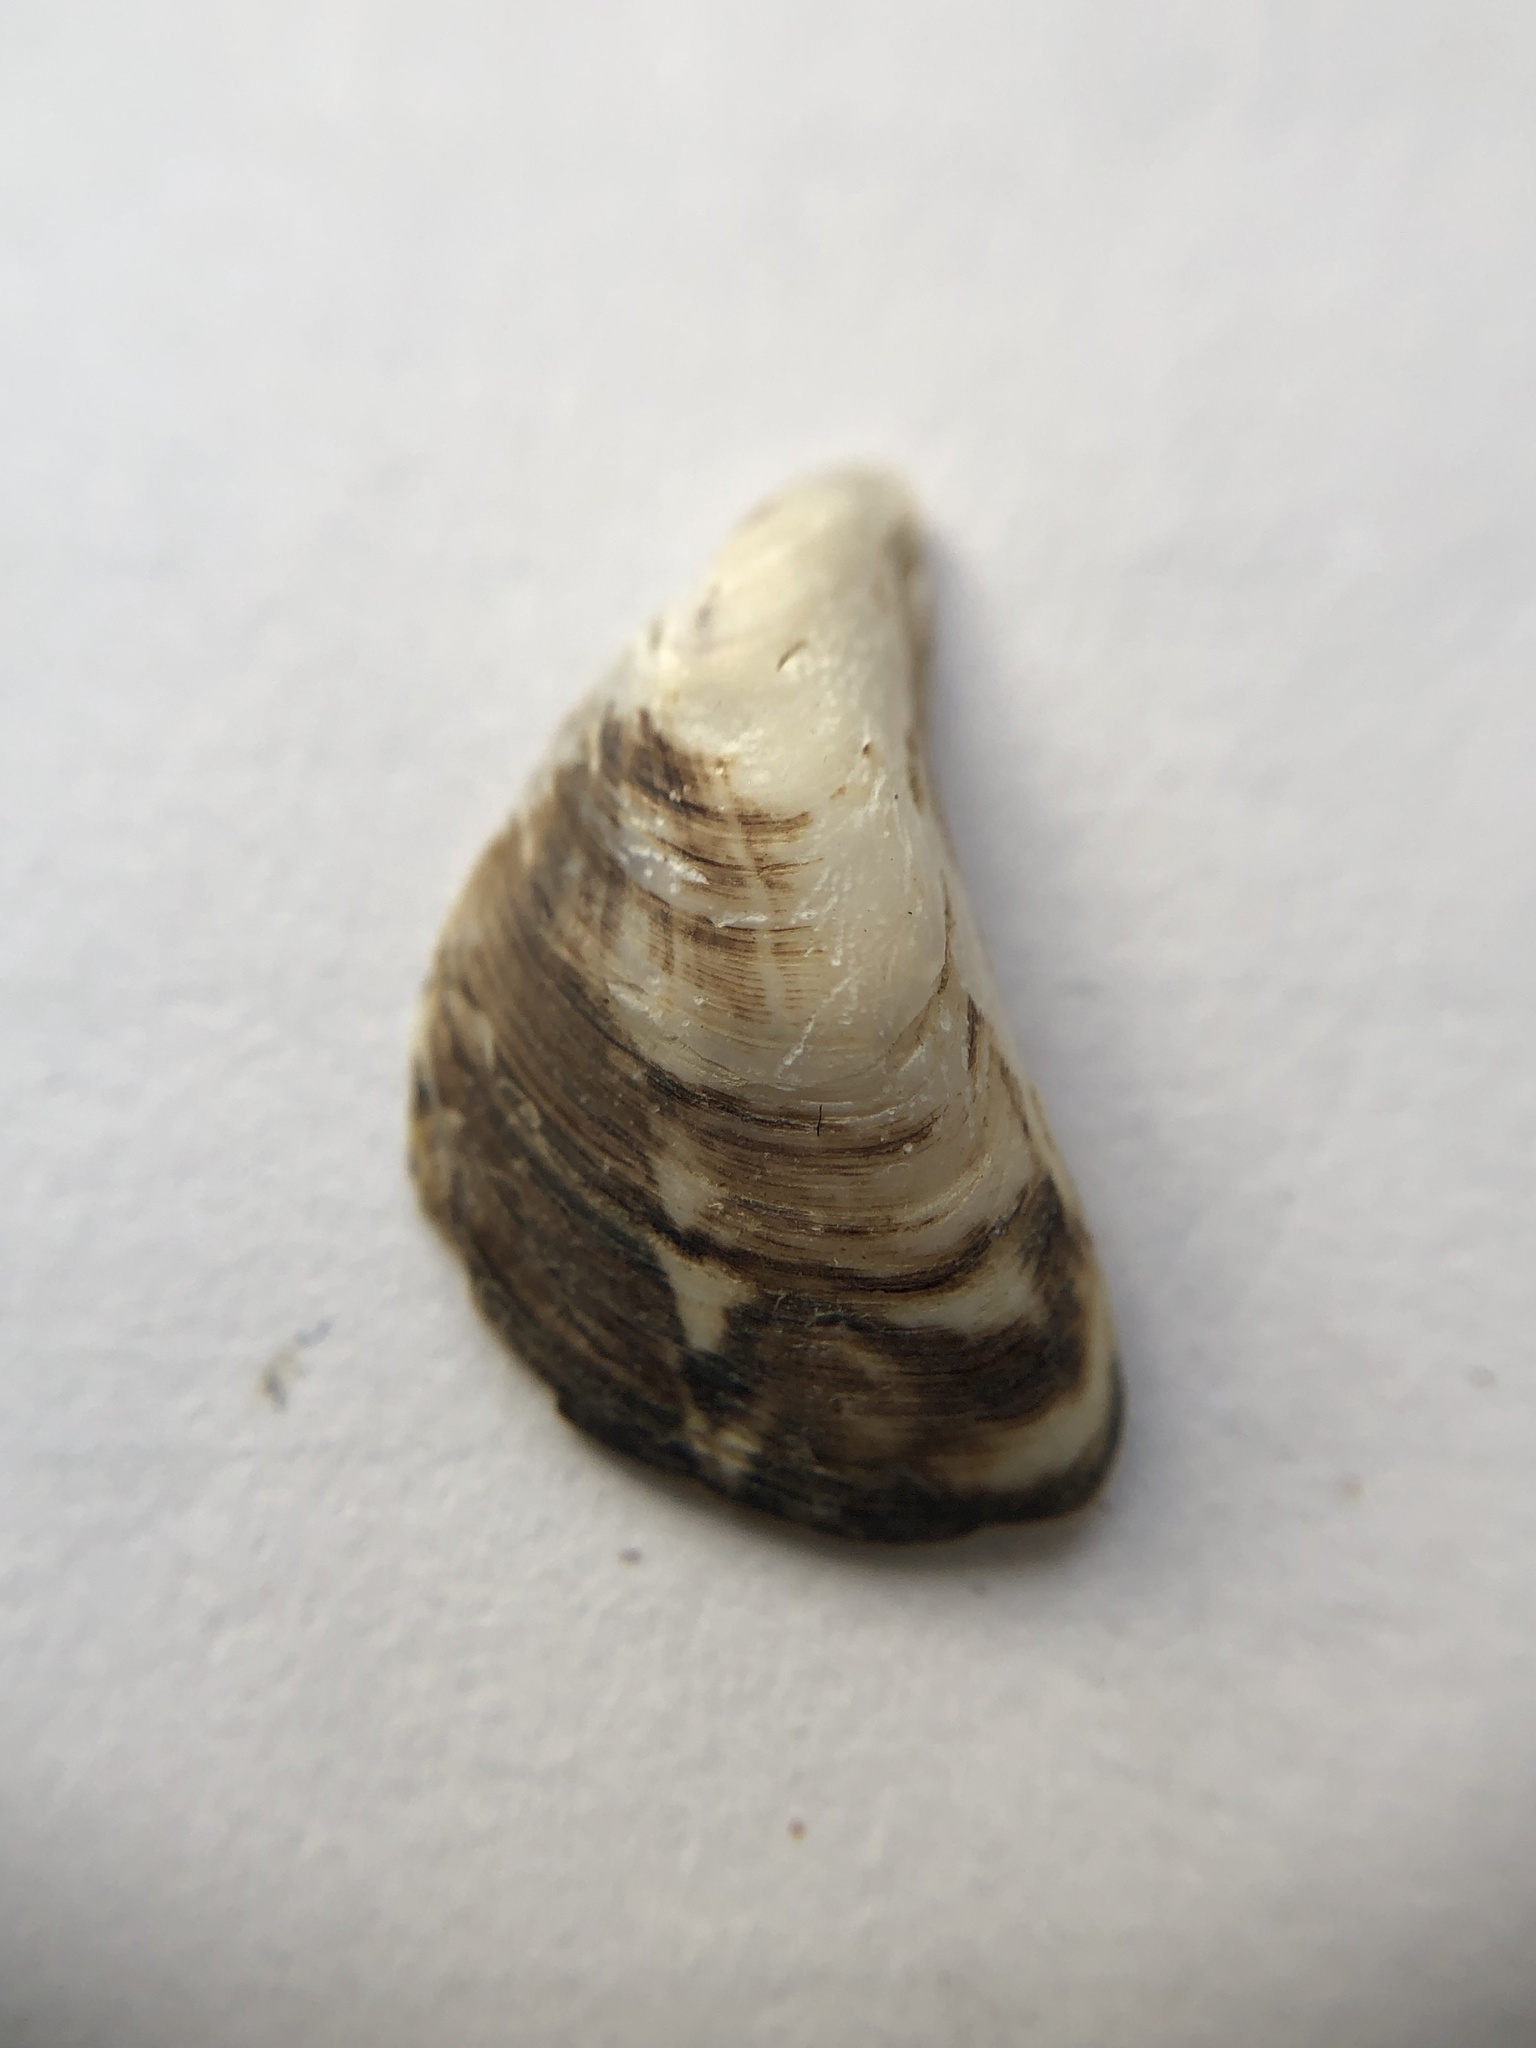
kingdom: Animalia
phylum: Mollusca
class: Bivalvia
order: Myida
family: Dreissenidae
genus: Dreissena
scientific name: Dreissena bugensis
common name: Quagga mussel
